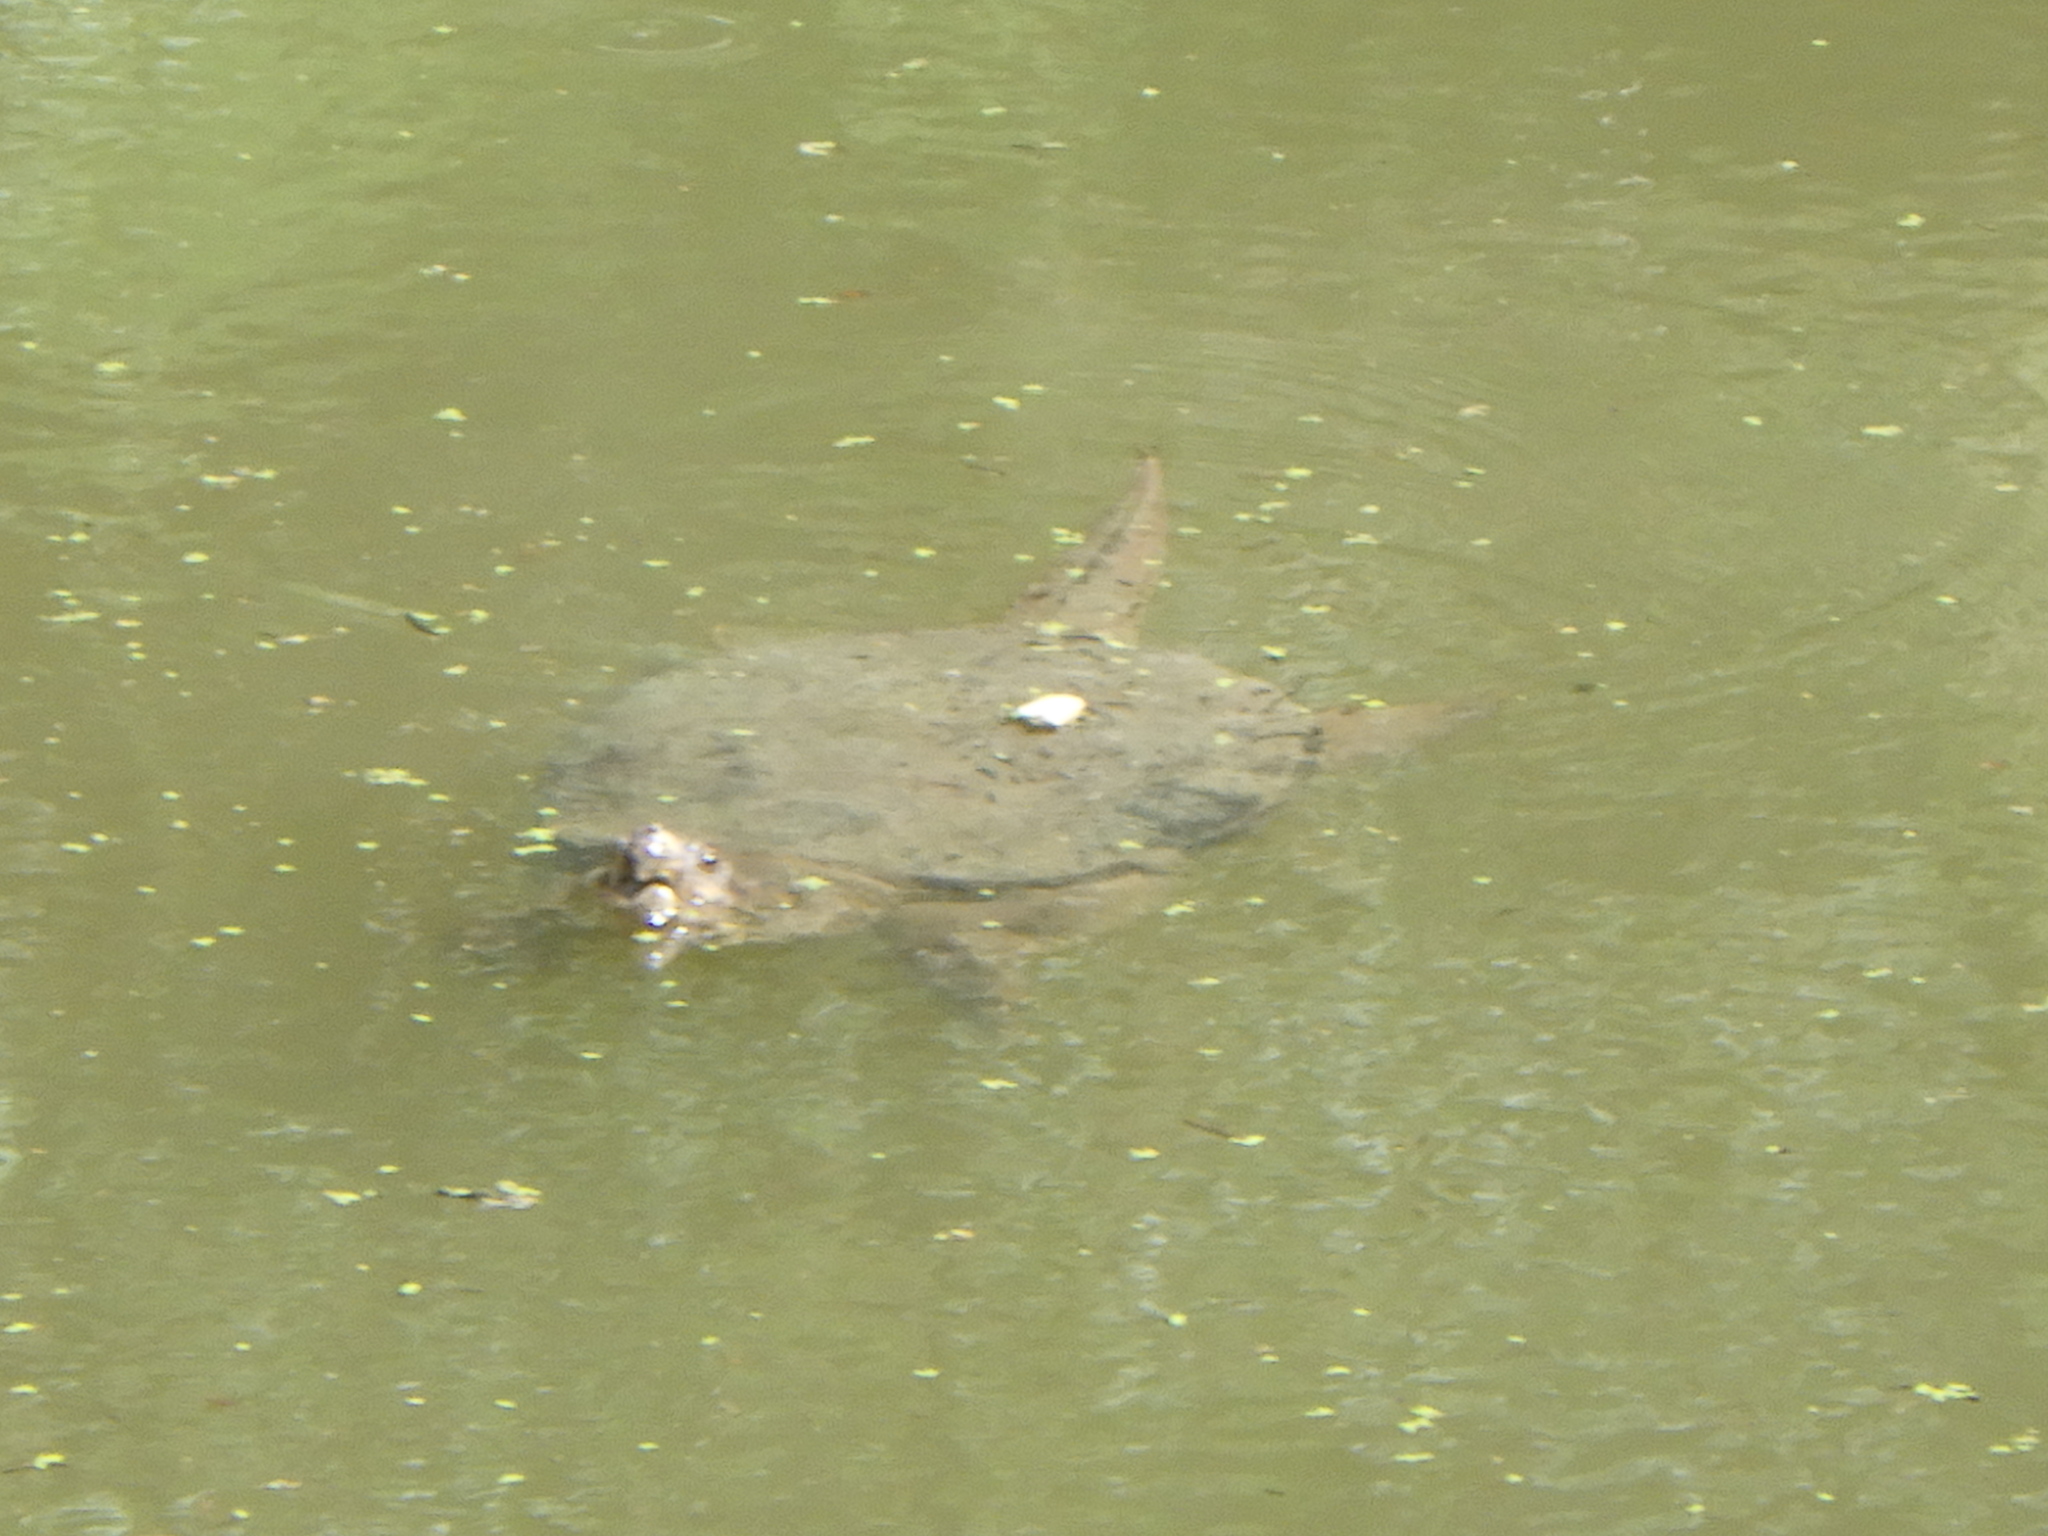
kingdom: Animalia
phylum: Chordata
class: Testudines
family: Chelydridae
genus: Chelydra
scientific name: Chelydra serpentina
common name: Common snapping turtle
